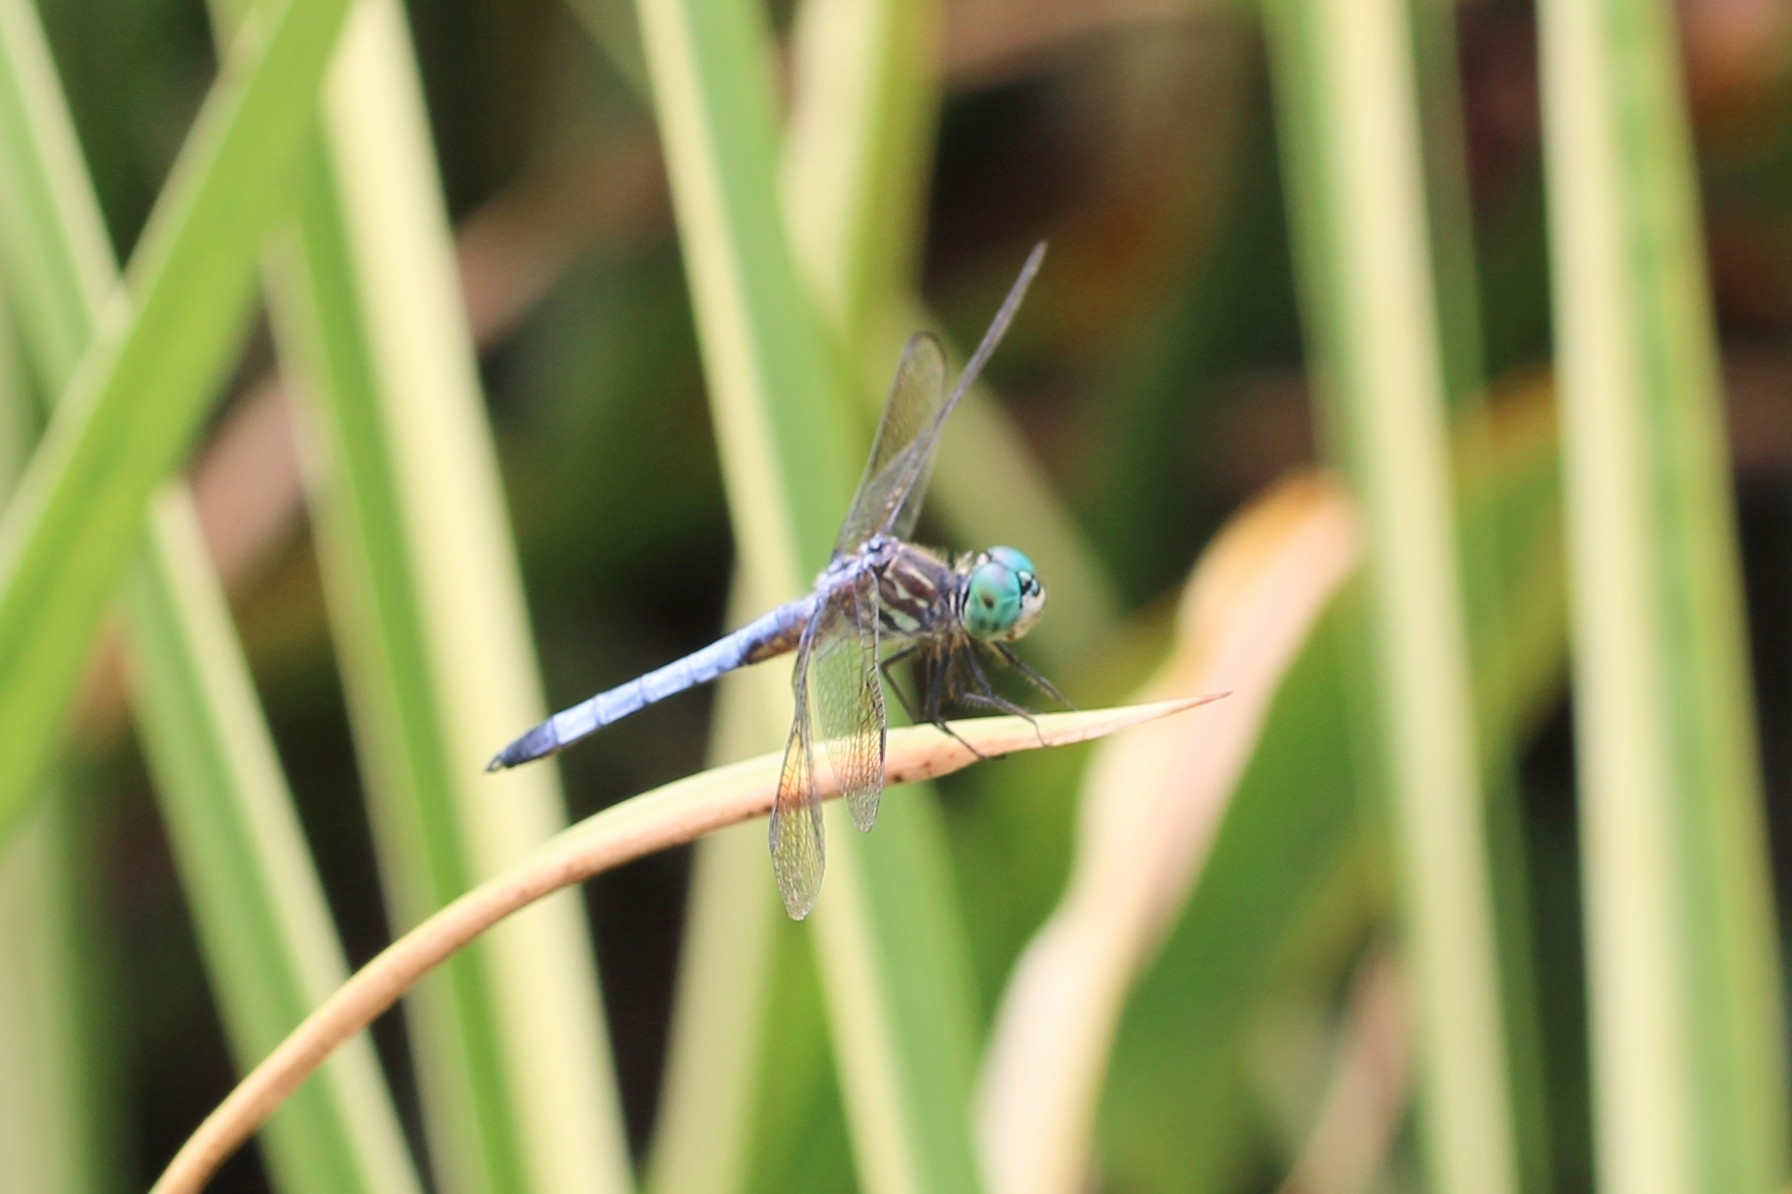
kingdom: Animalia
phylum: Arthropoda
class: Insecta
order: Odonata
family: Libellulidae
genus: Pachydiplax
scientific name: Pachydiplax longipennis
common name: Blue dasher
